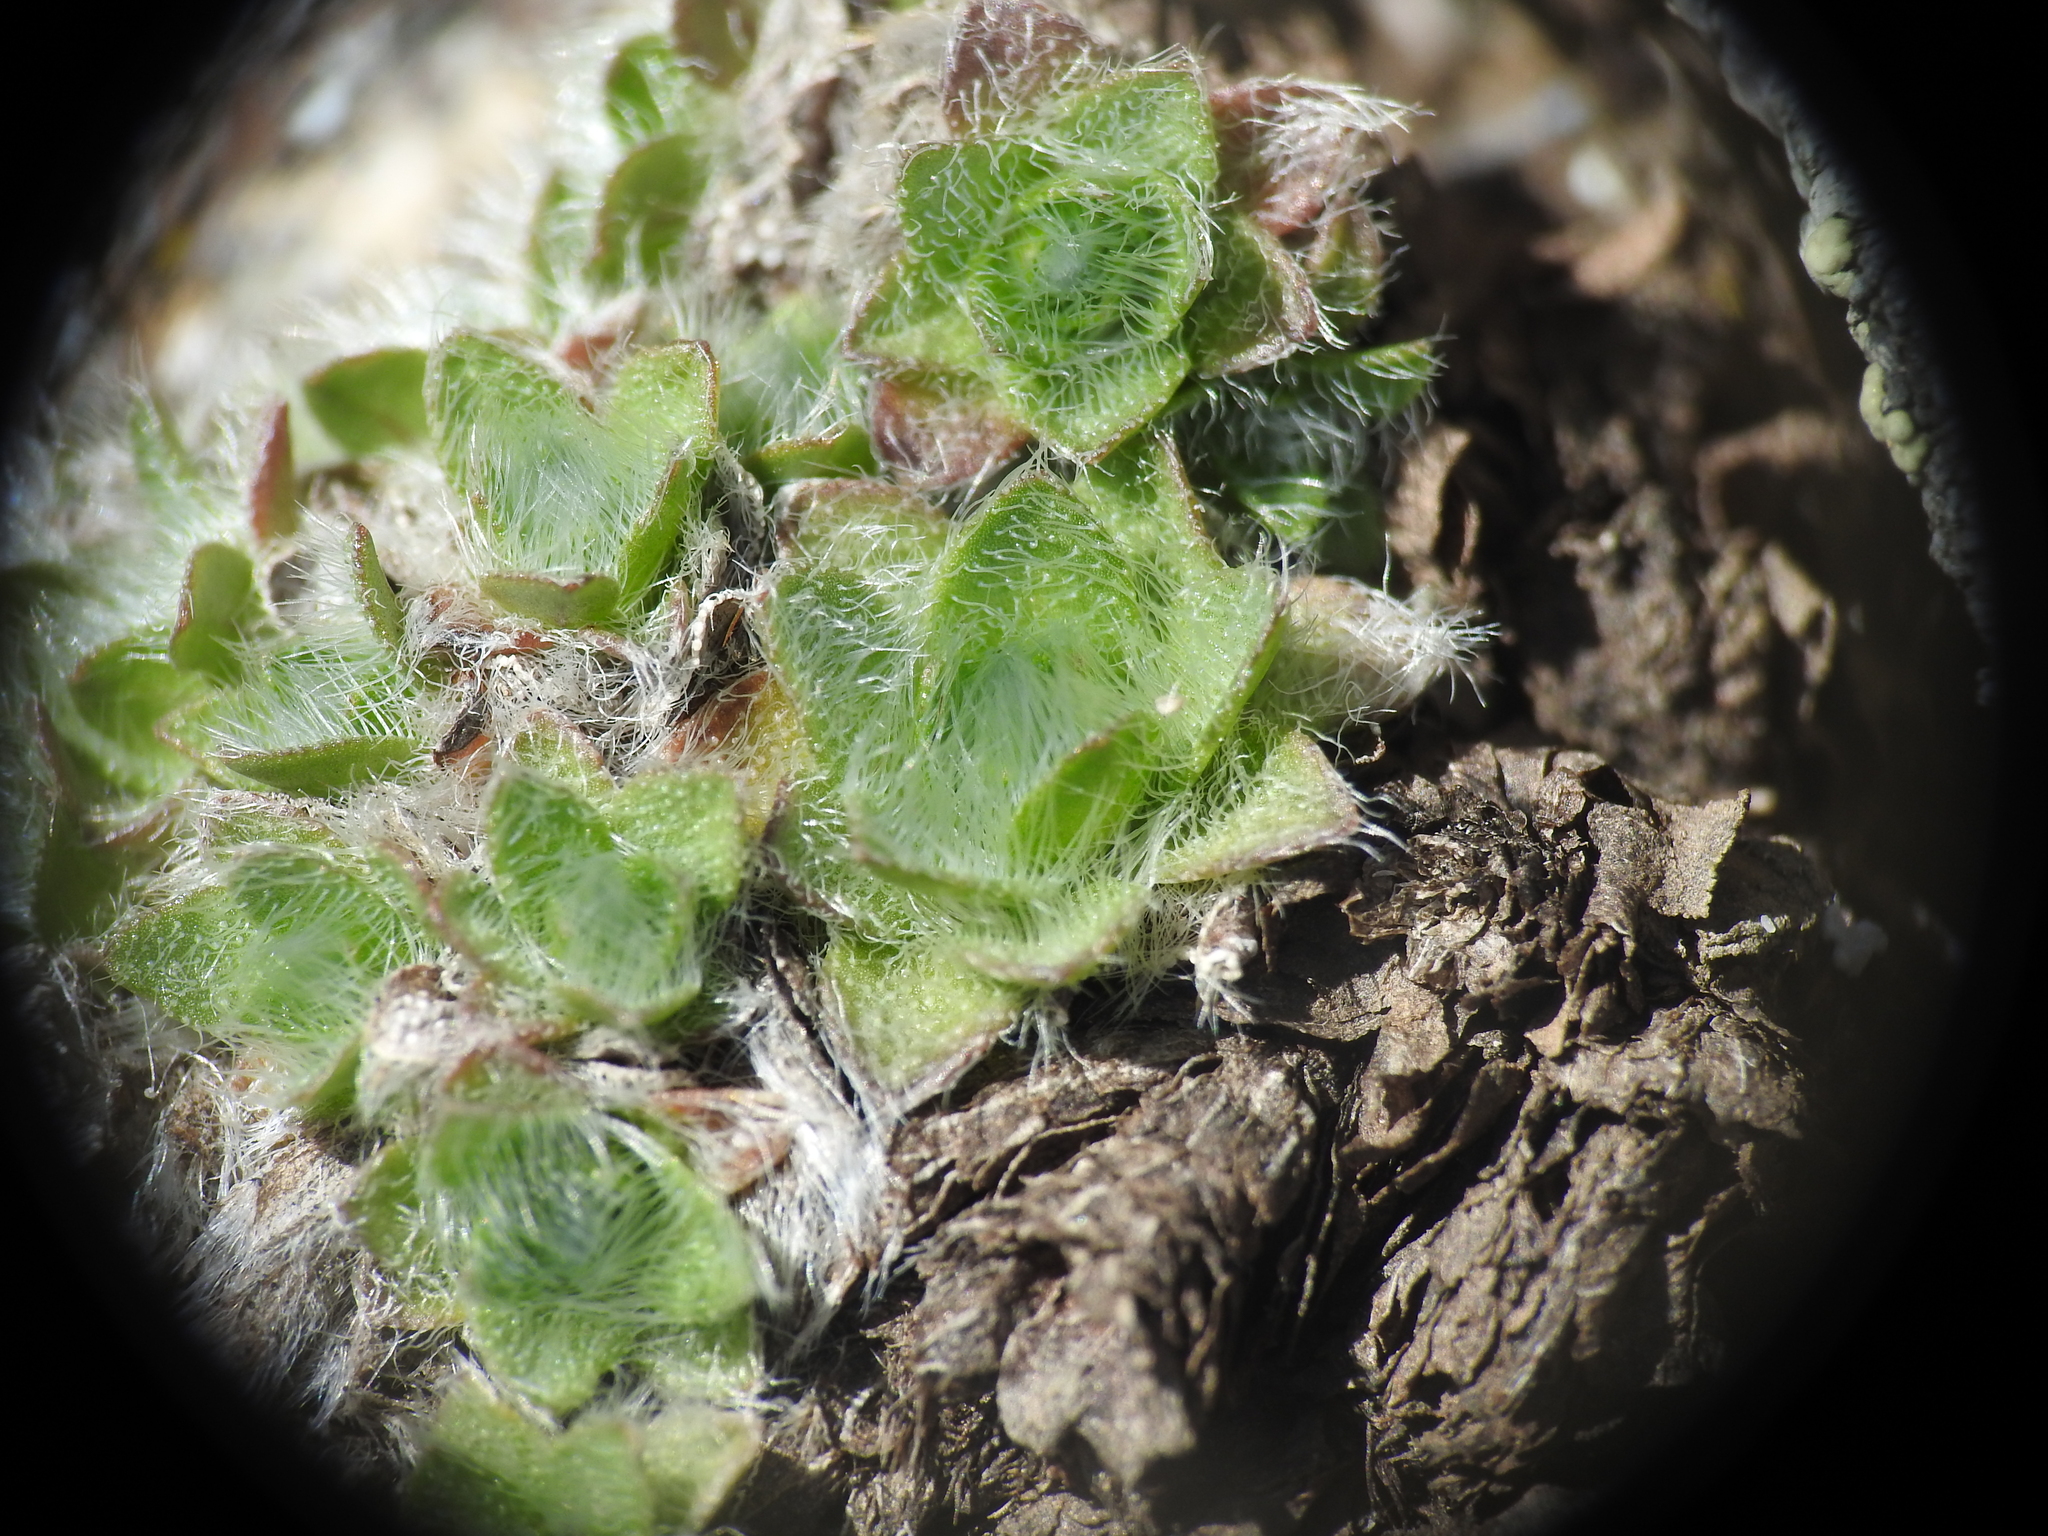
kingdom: Plantae
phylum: Tracheophyta
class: Magnoliopsida
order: Boraginales
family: Boraginaceae
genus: Eritrichium
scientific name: Eritrichium nanum
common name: King-of-the-alps
